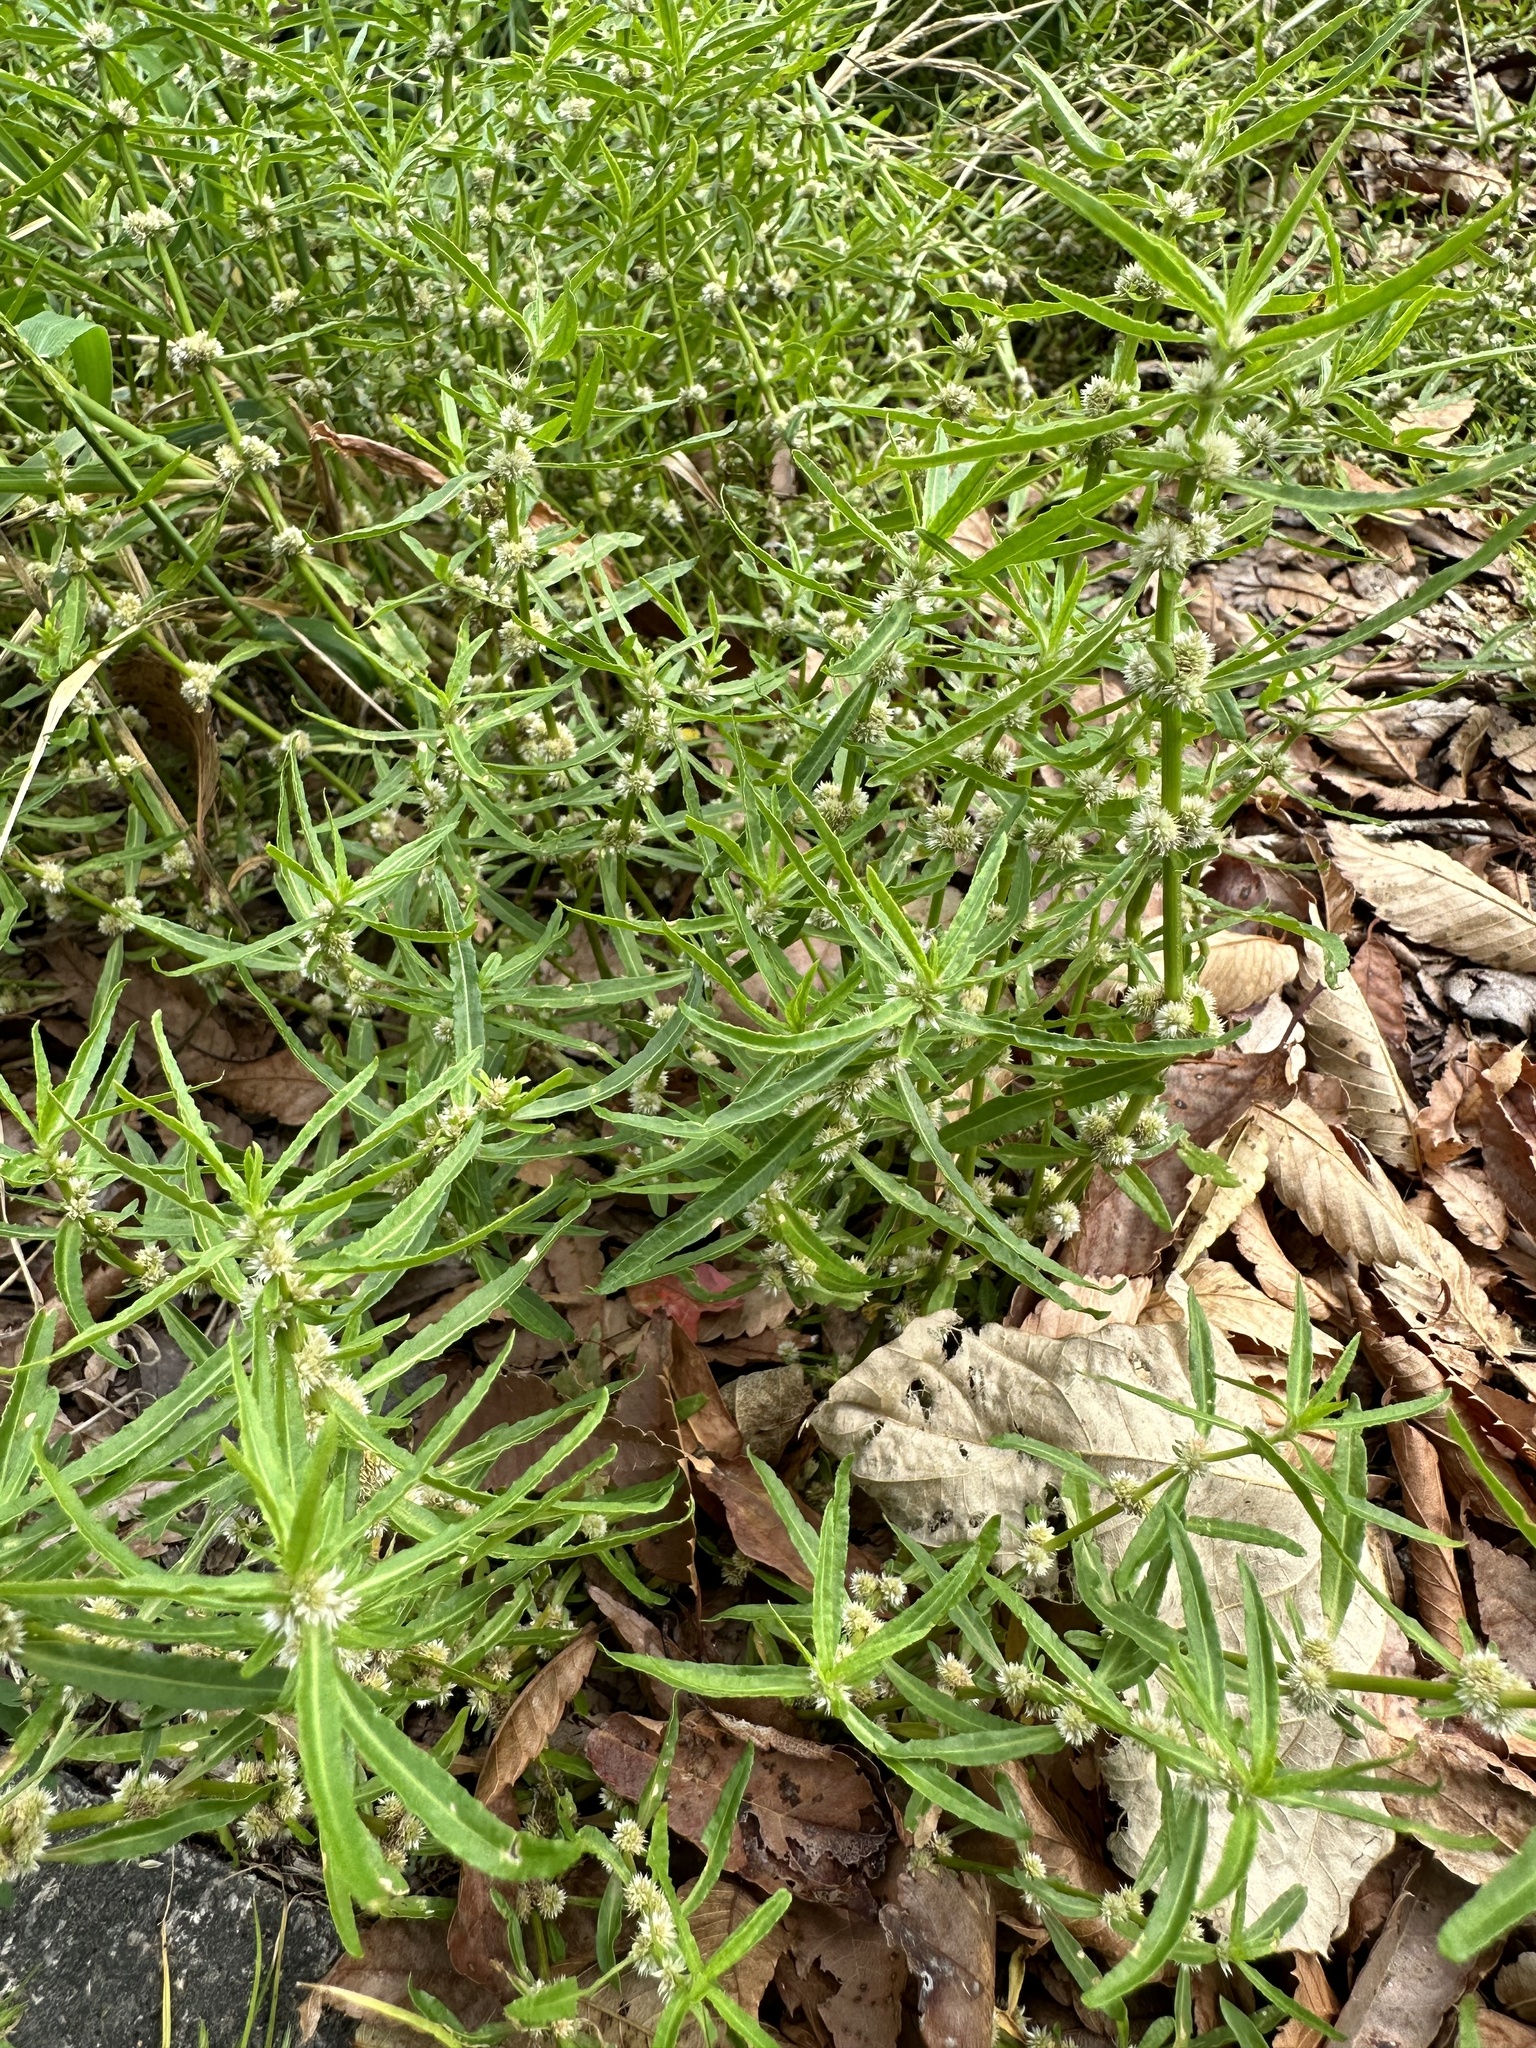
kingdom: Plantae
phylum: Tracheophyta
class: Magnoliopsida
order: Caryophyllales
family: Amaranthaceae
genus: Alternanthera
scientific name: Alternanthera denticulata
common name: Lesser joyweed
